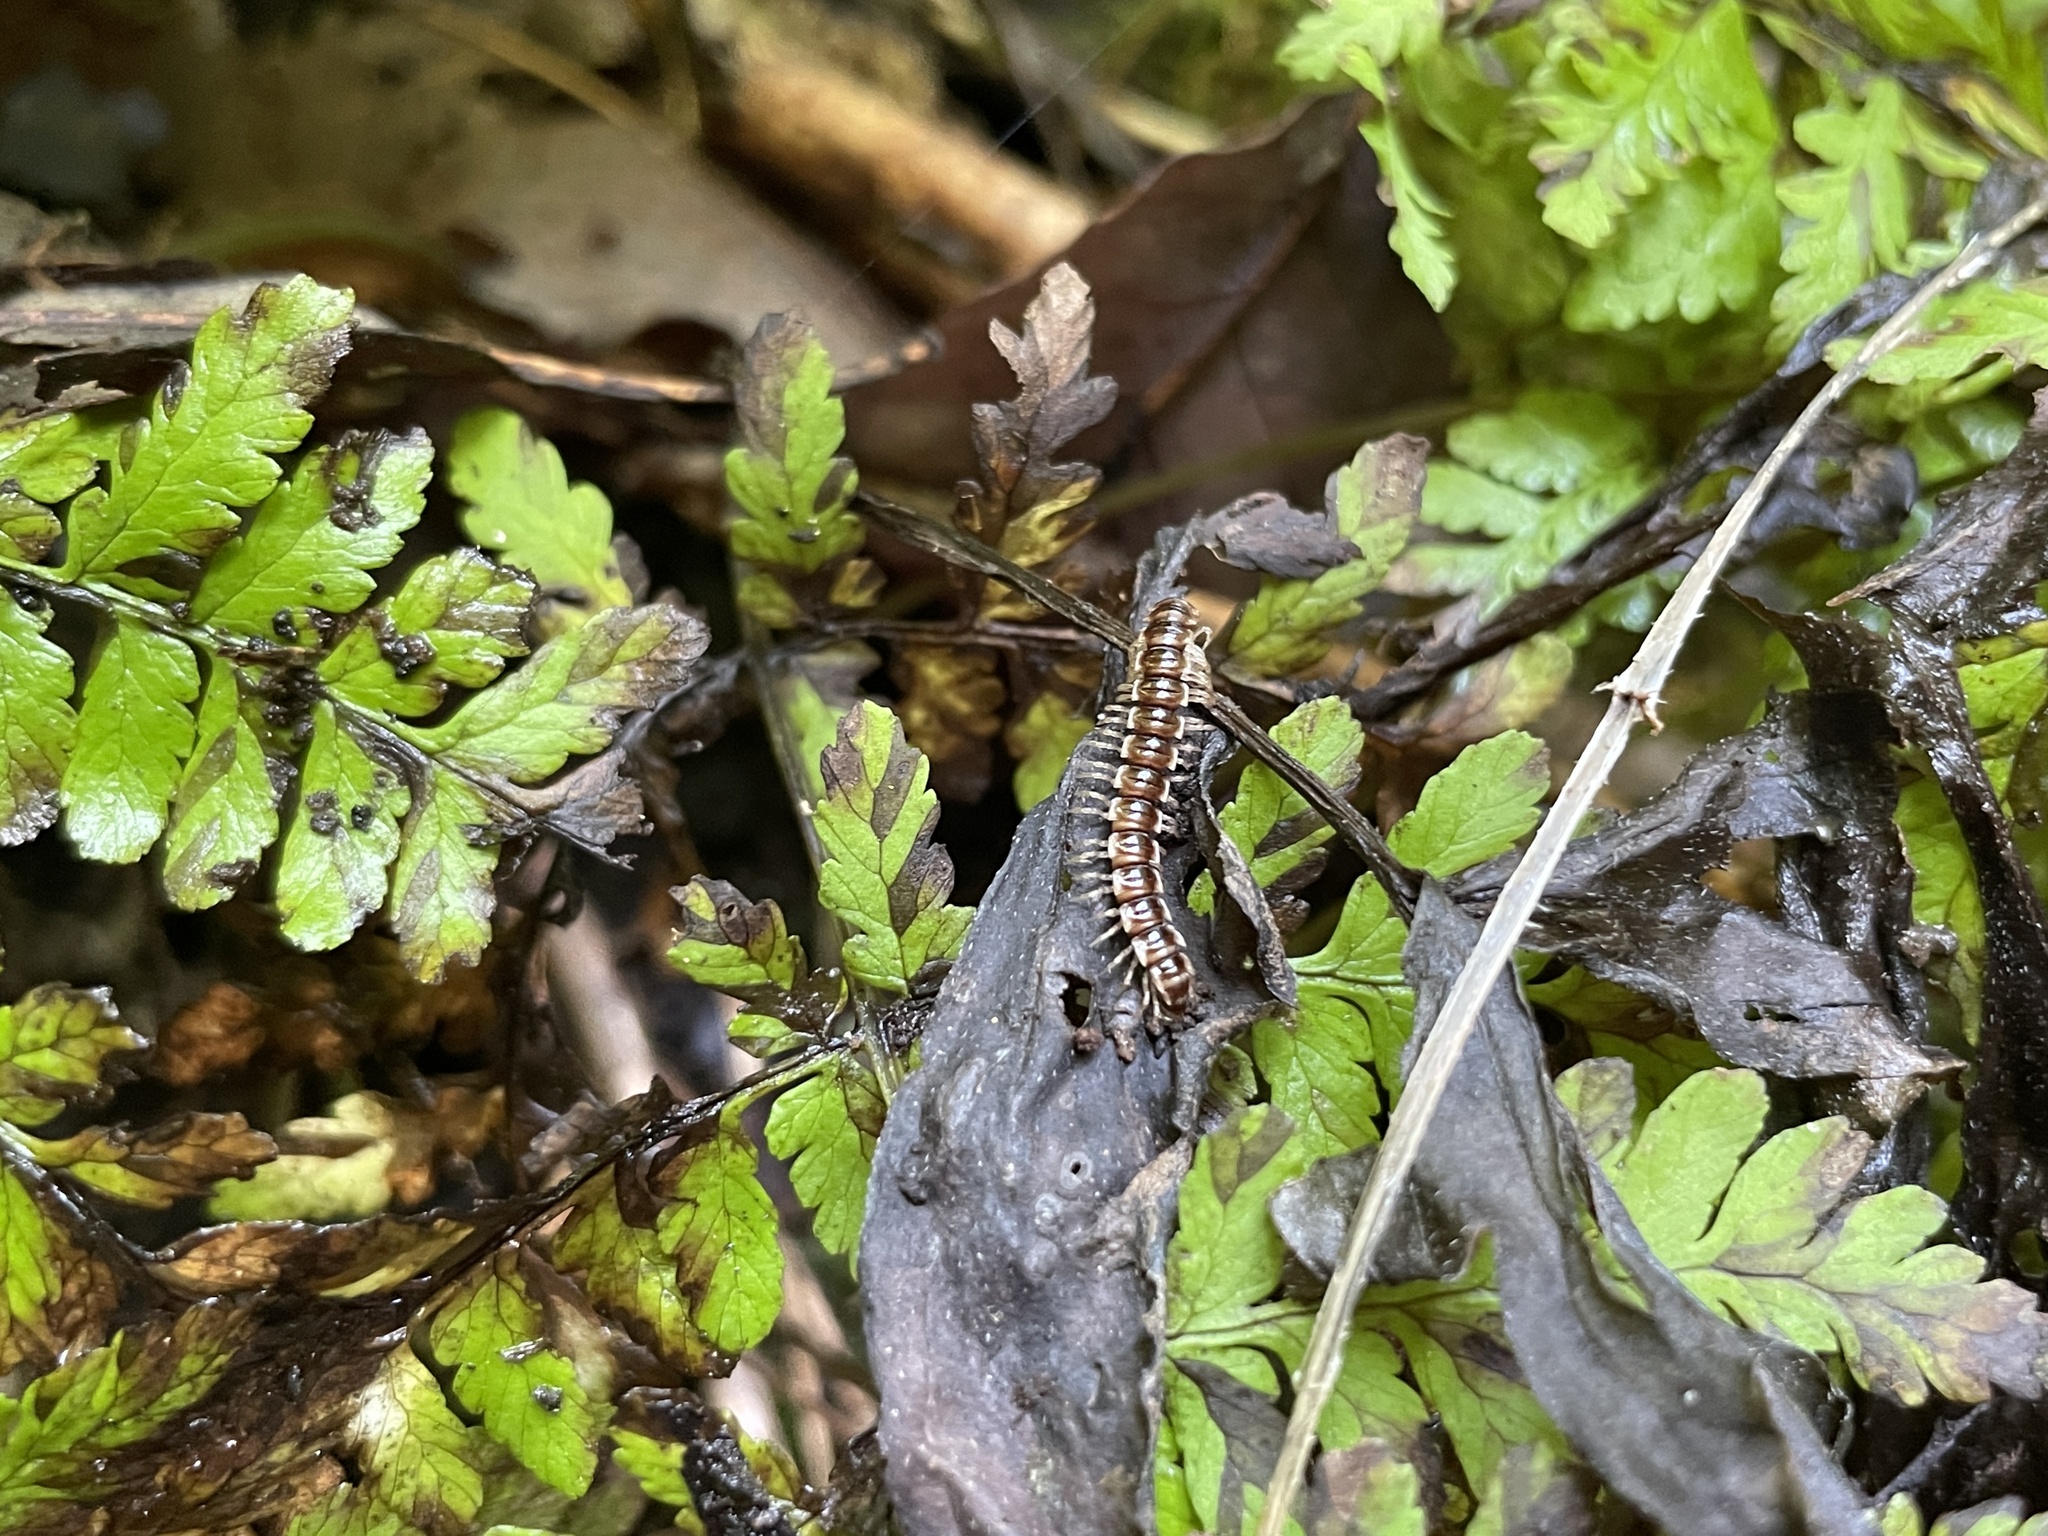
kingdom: Animalia
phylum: Arthropoda
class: Diplopoda
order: Polydesmida
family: Paradoxosomatidae
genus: Oxidus
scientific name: Oxidus gracilis
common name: Greenhouse millipede
